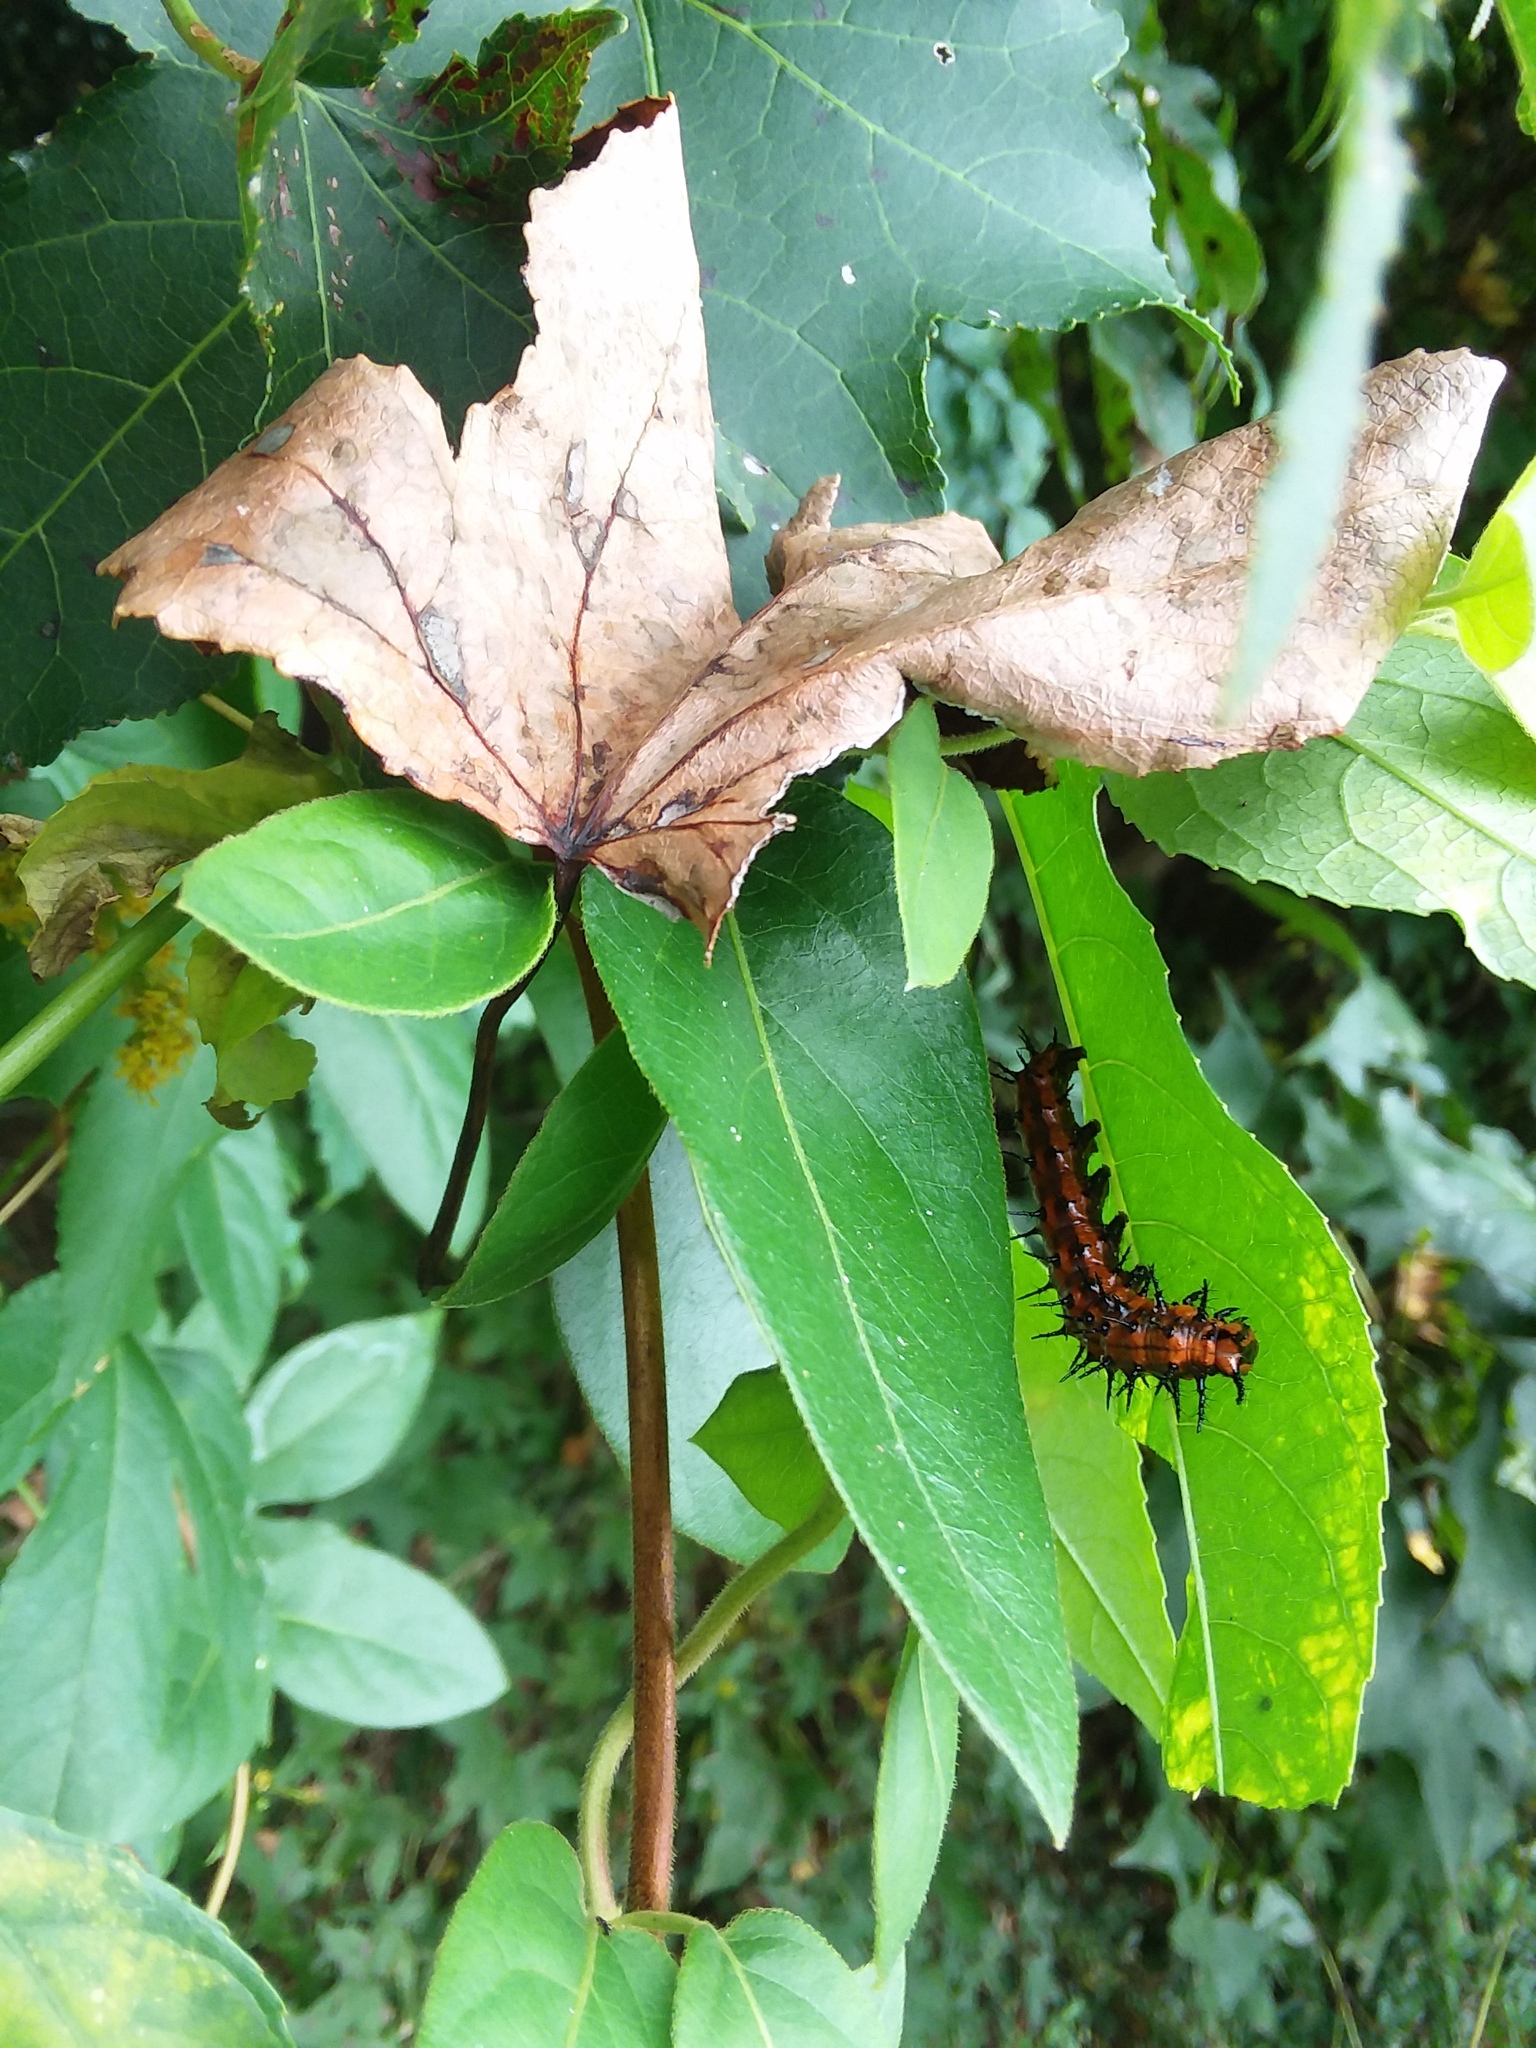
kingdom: Animalia
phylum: Arthropoda
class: Insecta
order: Lepidoptera
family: Nymphalidae
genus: Dione
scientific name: Dione vanillae
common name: Gulf fritillary
